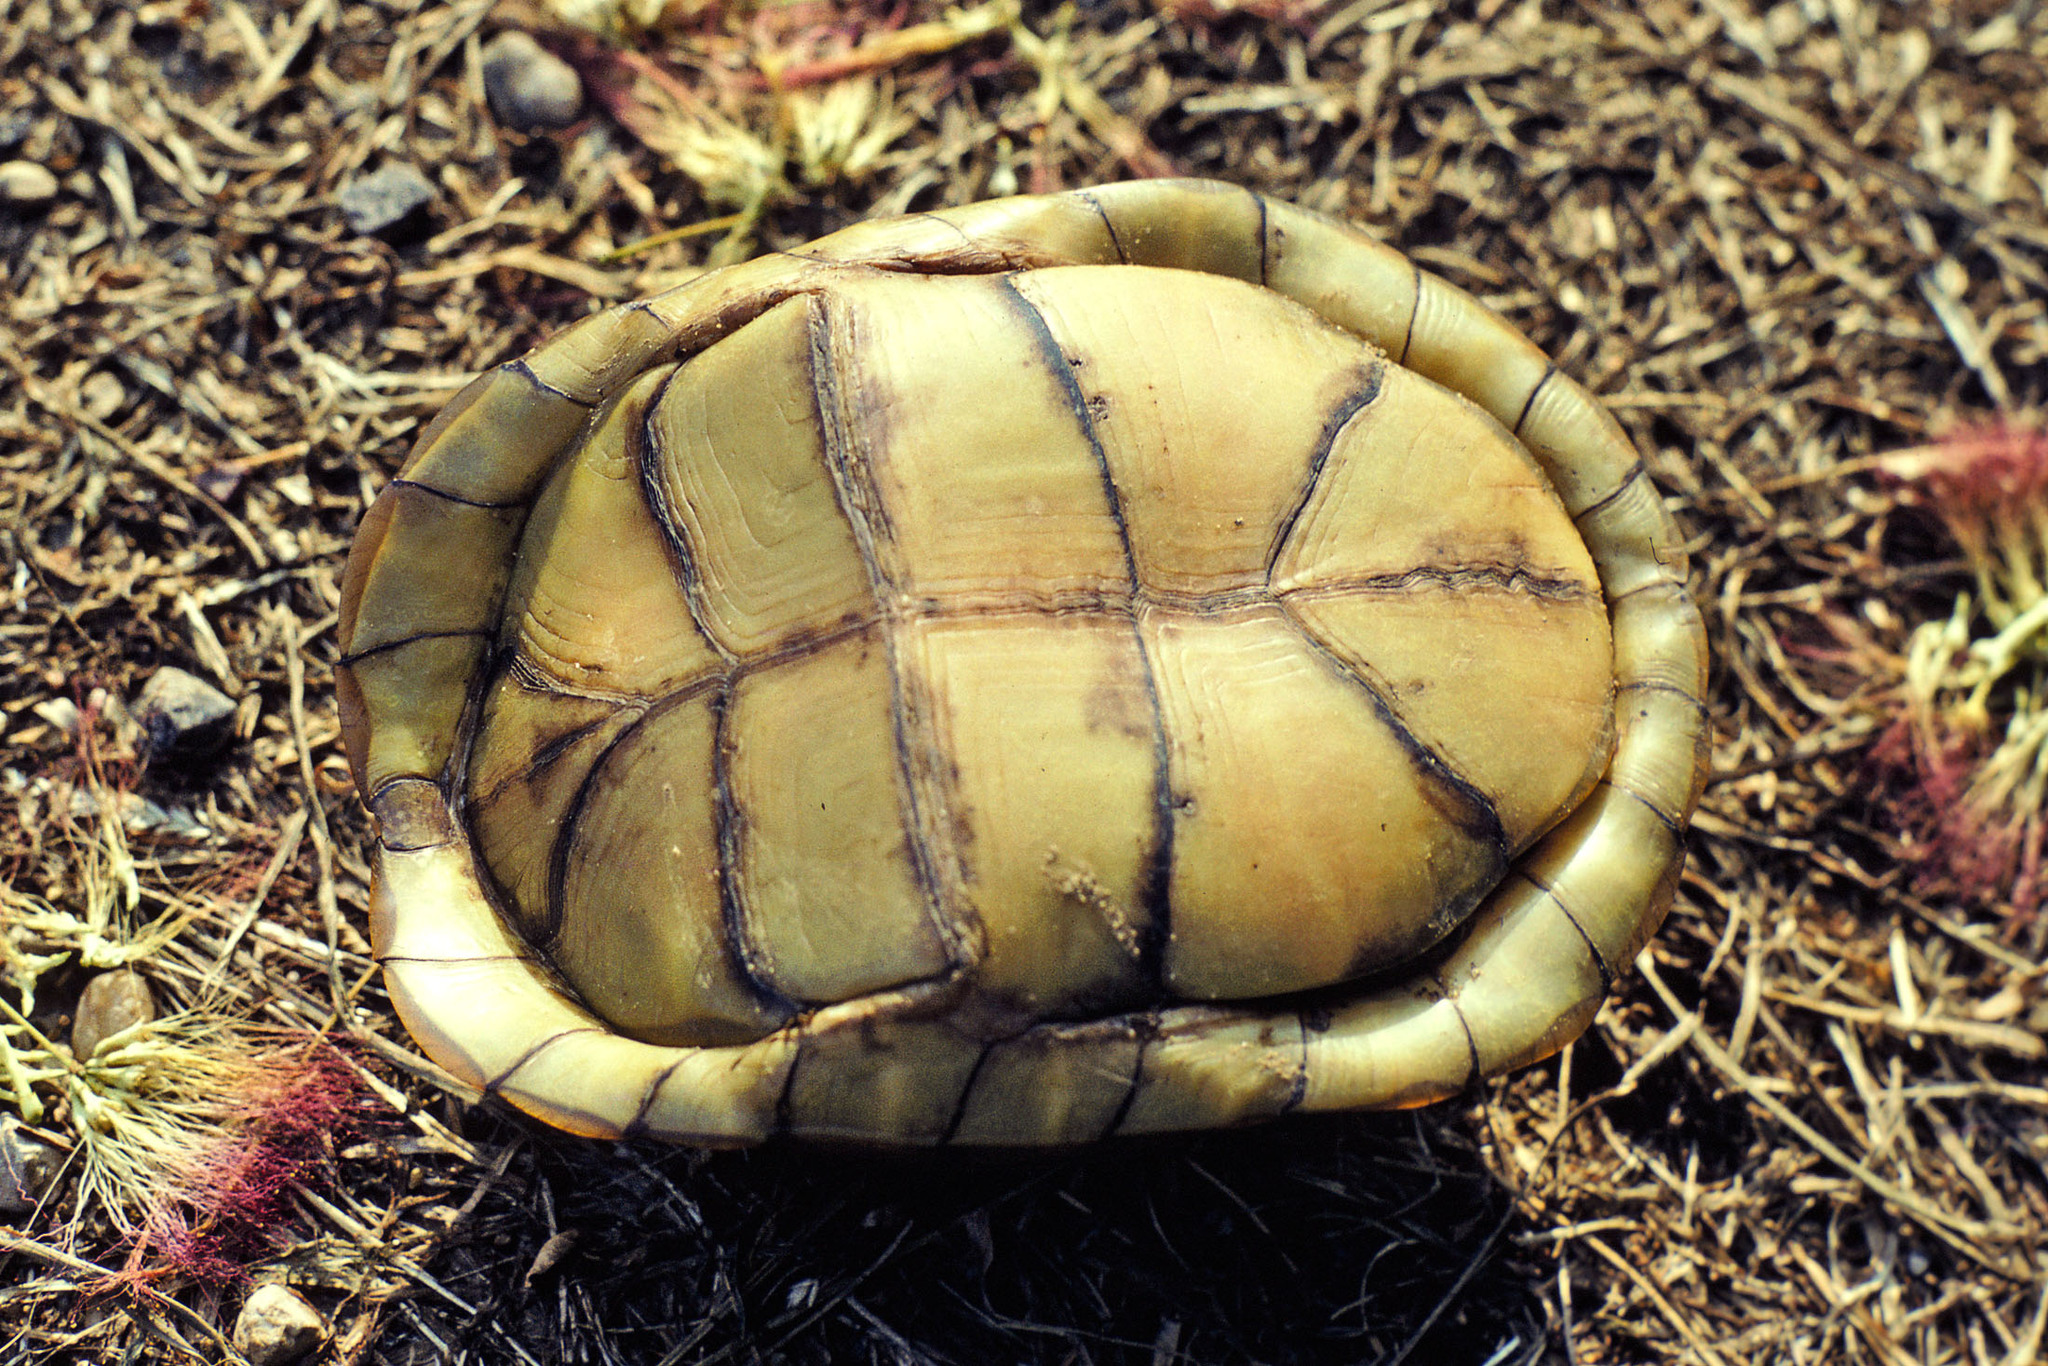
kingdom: Animalia
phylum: Chordata
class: Testudines
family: Emydidae
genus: Terrapene
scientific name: Terrapene carolina
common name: Common box turtle
